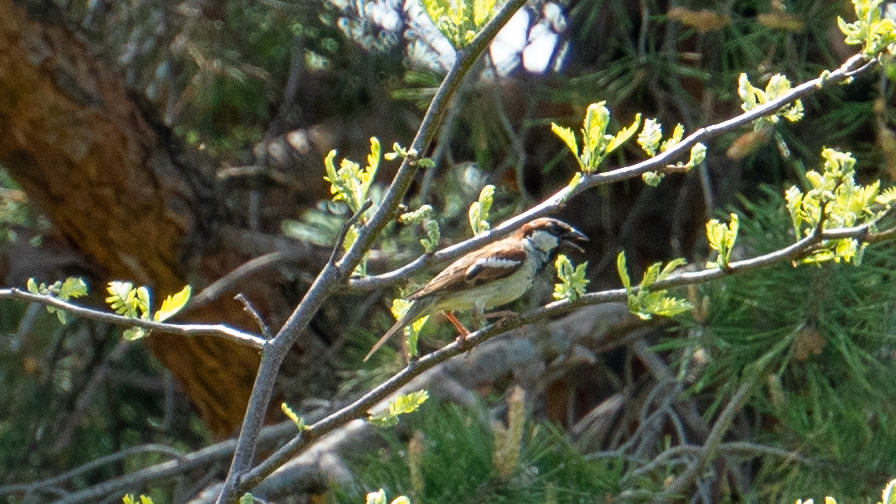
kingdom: Animalia
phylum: Chordata
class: Aves
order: Passeriformes
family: Passeridae
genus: Passer
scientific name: Passer domesticus
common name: House sparrow
